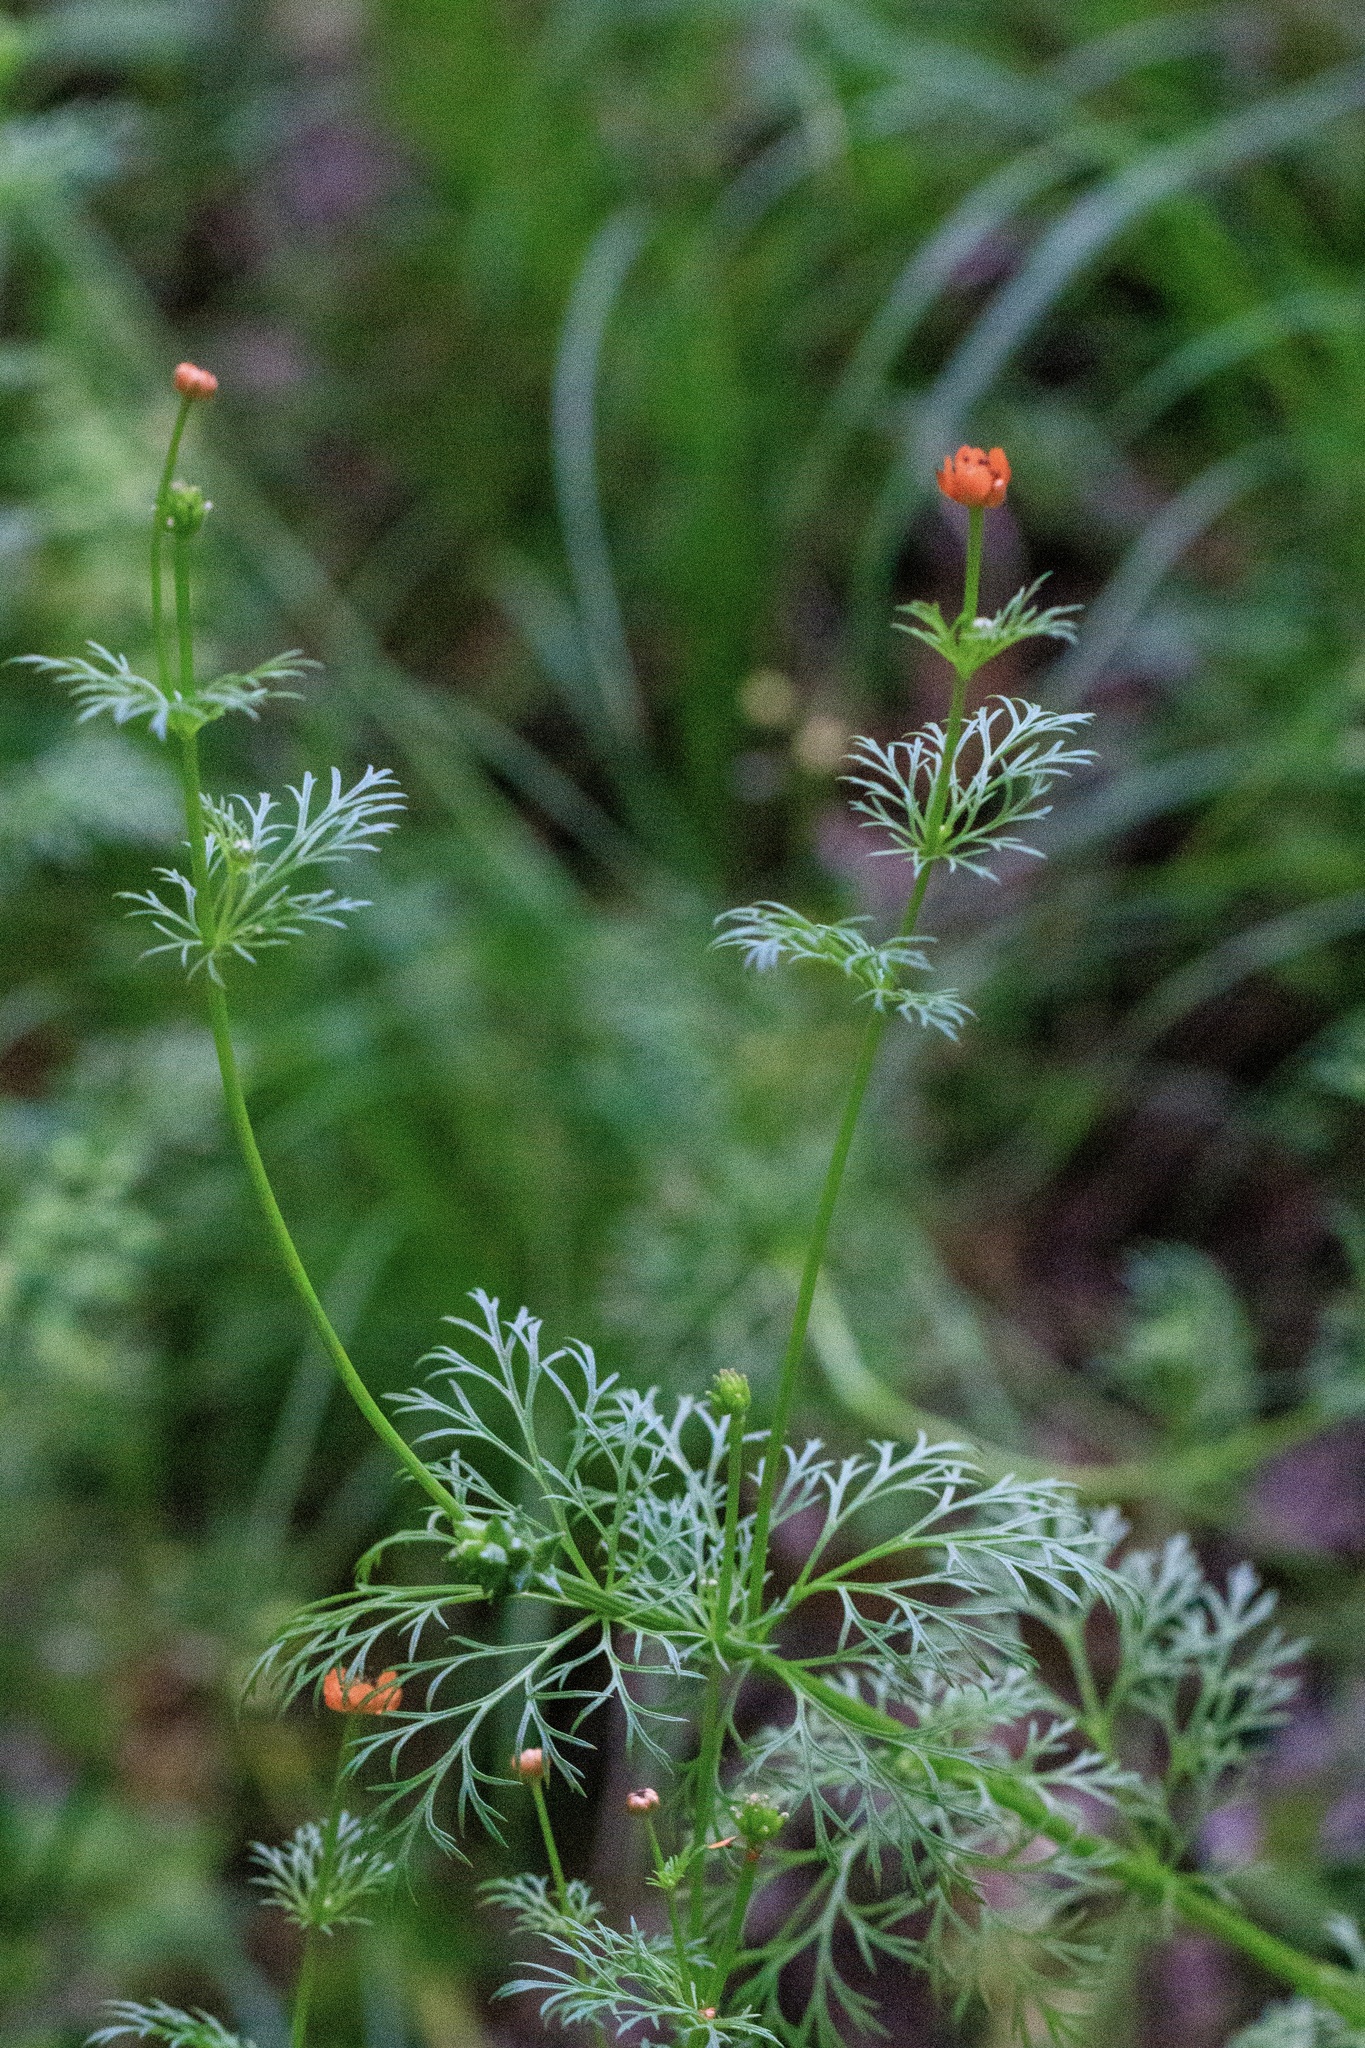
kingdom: Plantae
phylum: Tracheophyta
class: Magnoliopsida
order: Ranunculales
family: Ranunculaceae
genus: Adonis
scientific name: Adonis aestivalis
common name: Summer pheasant's-eye
